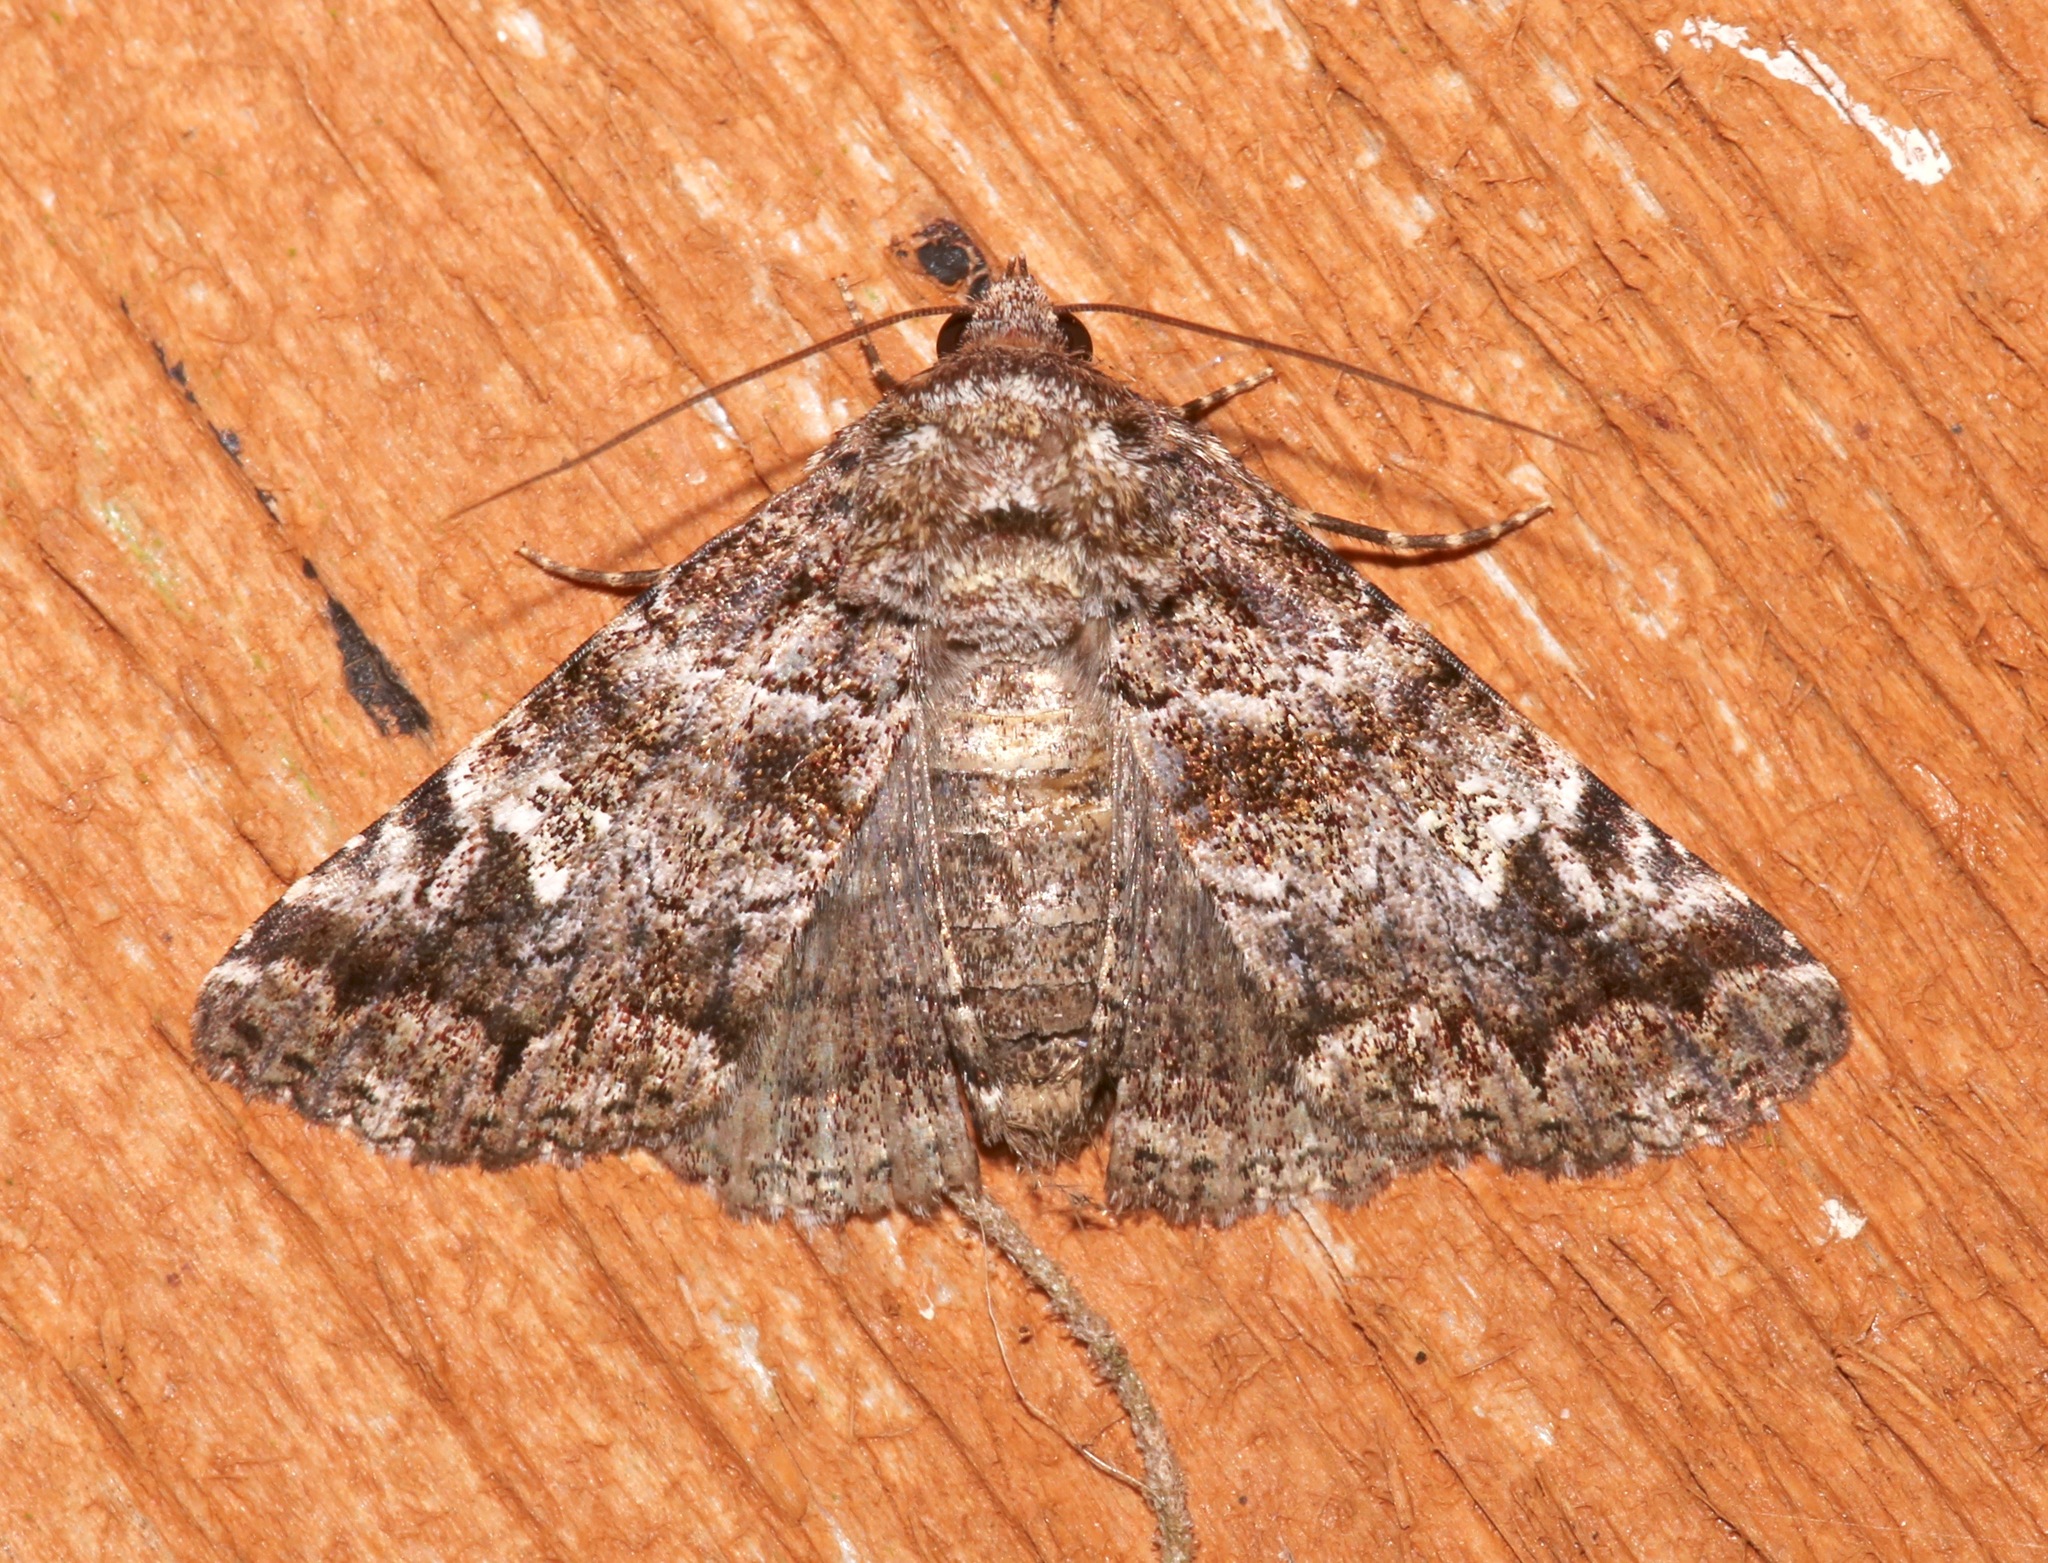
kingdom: Animalia
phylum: Arthropoda
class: Insecta
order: Lepidoptera
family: Erebidae
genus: Metria
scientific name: Metria amella
